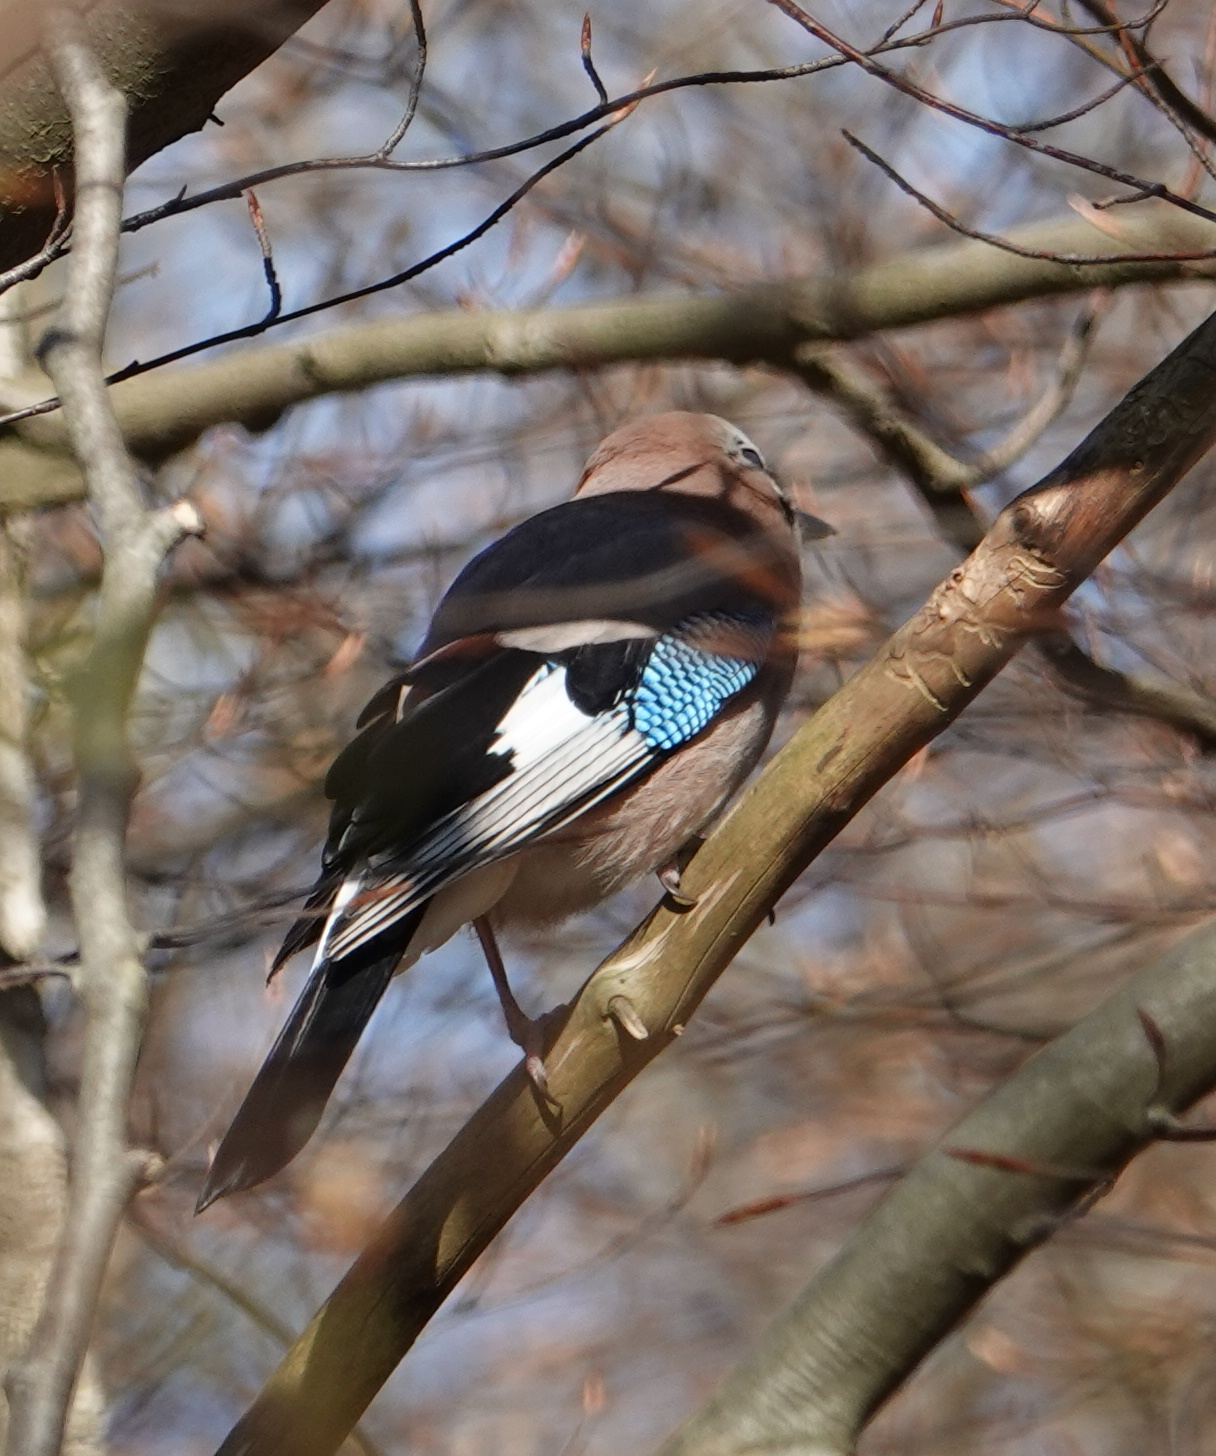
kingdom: Animalia
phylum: Chordata
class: Aves
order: Passeriformes
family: Corvidae
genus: Garrulus
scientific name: Garrulus glandarius
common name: Eurasian jay
